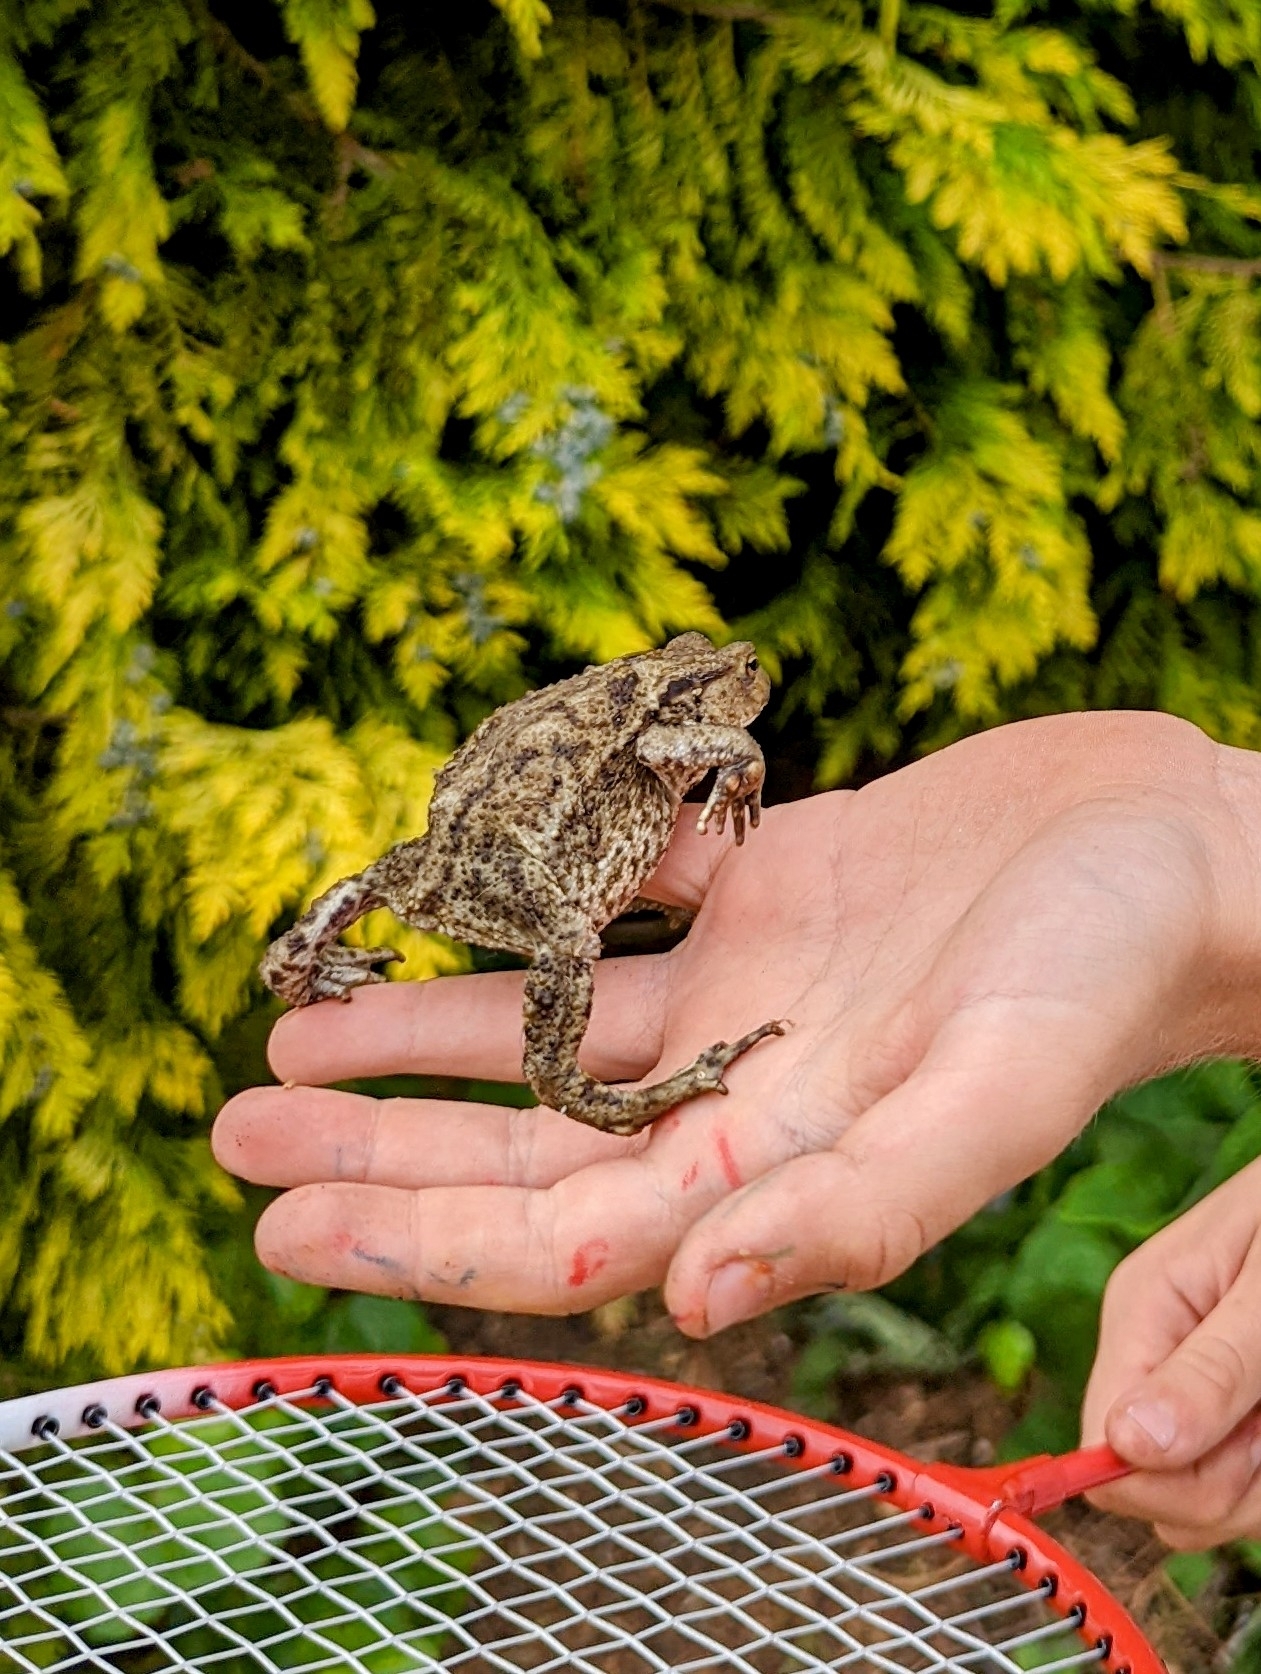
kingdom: Animalia
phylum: Chordata
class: Amphibia
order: Anura
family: Bufonidae
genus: Bufo
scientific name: Bufo bufo
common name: Common toad
